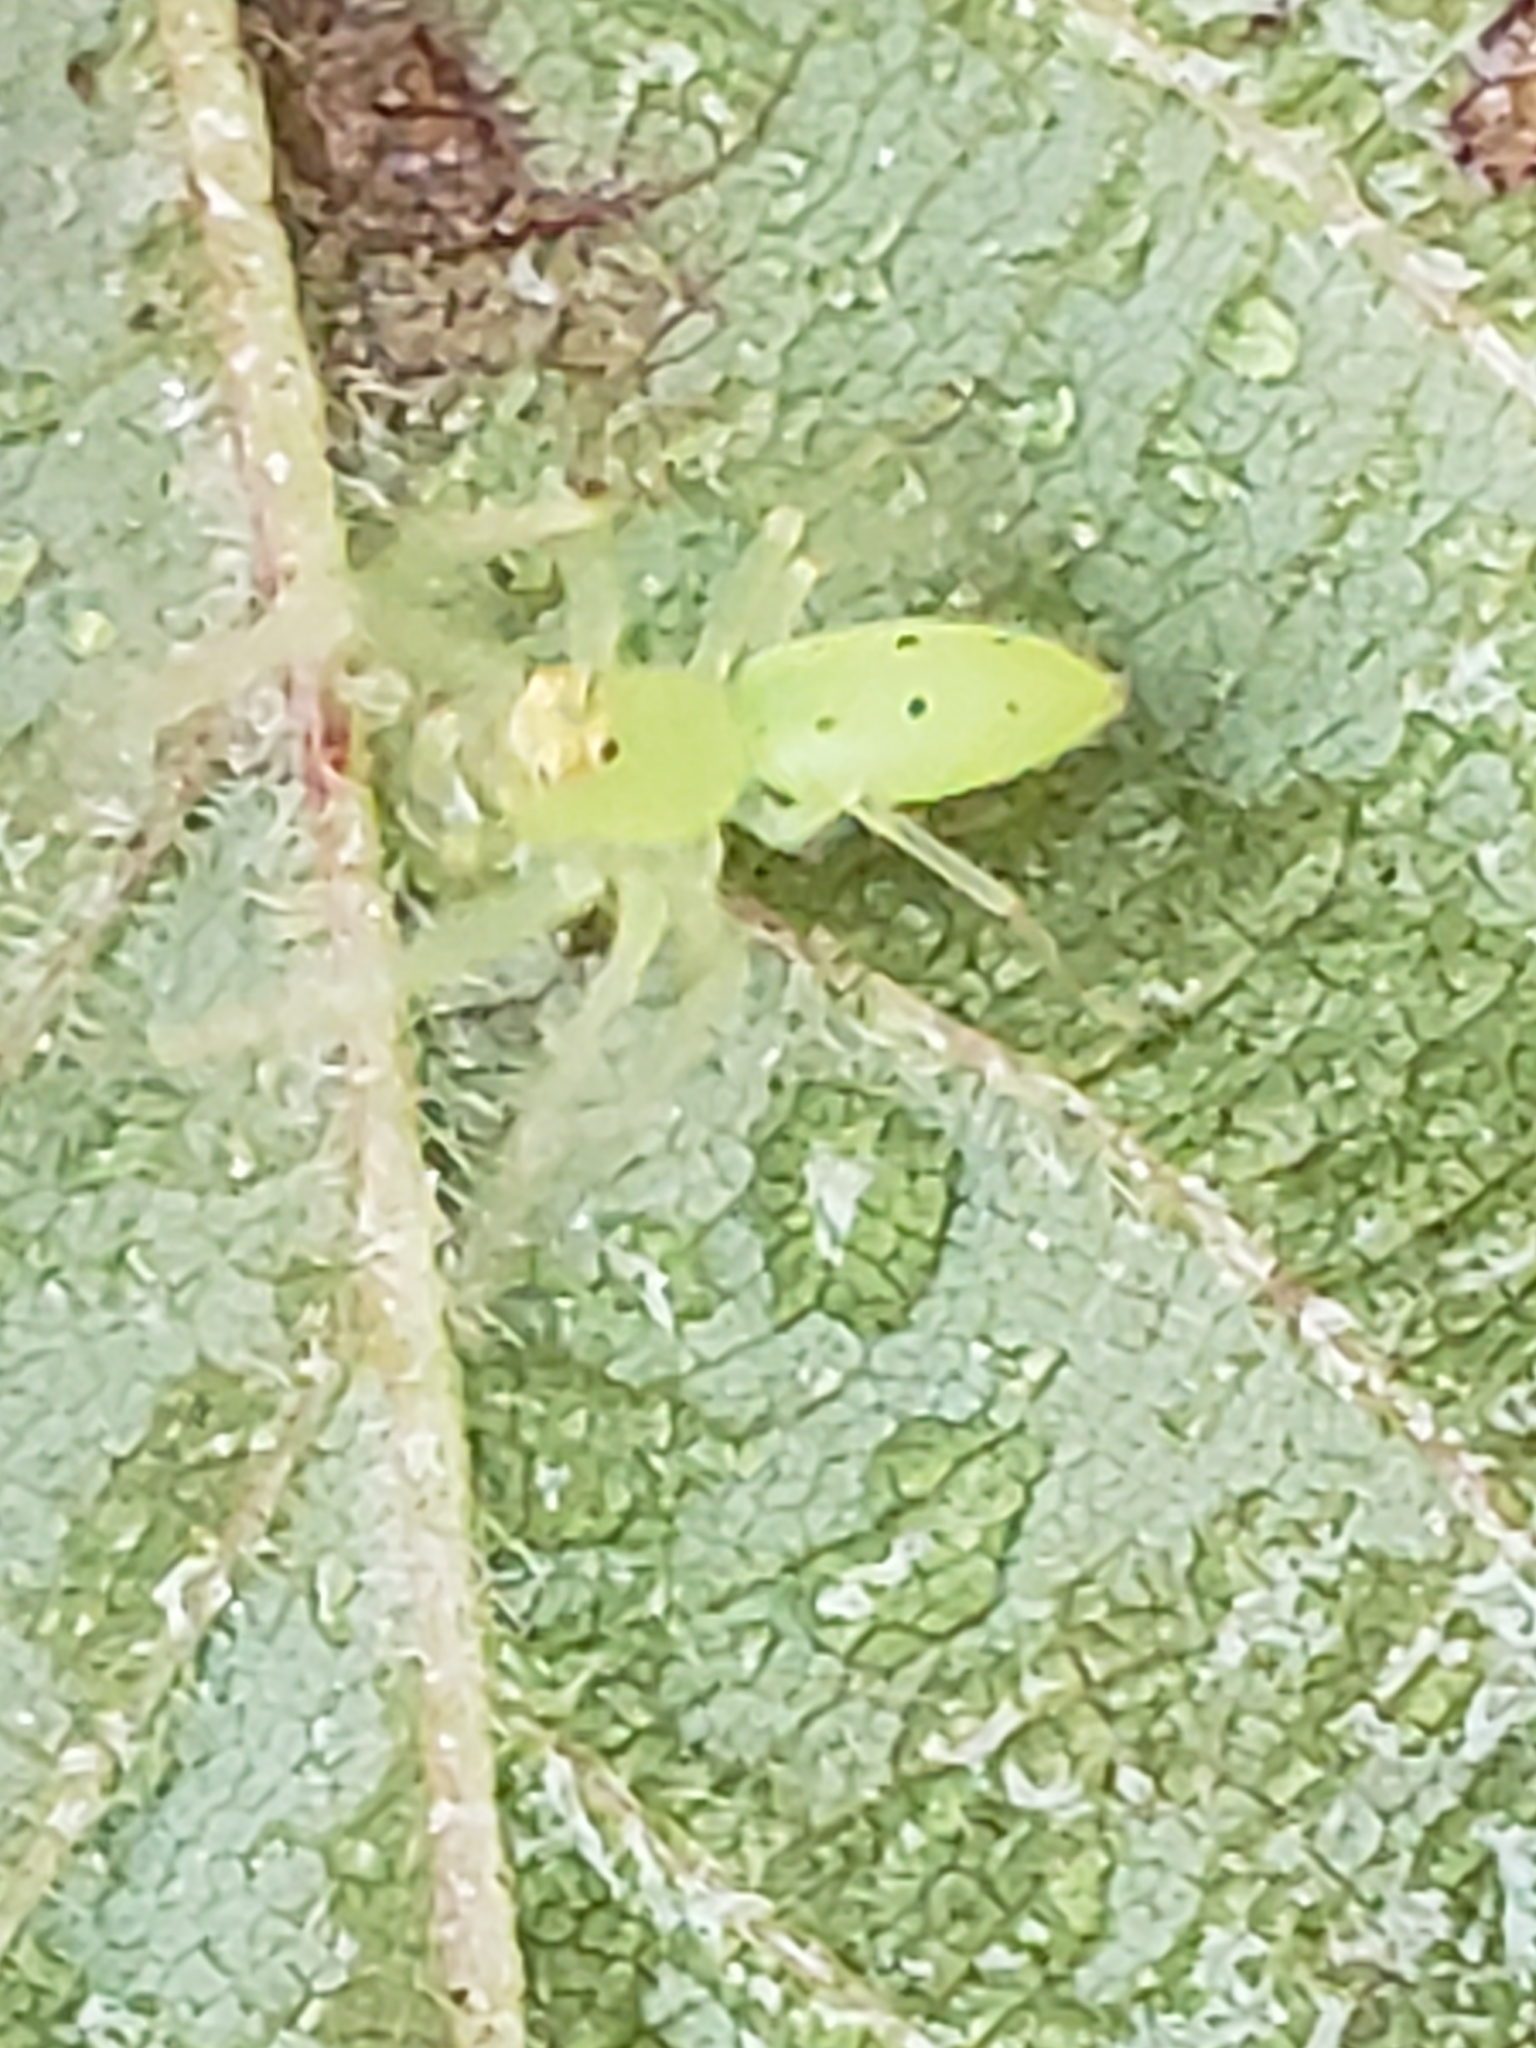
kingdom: Animalia
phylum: Arthropoda
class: Arachnida
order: Araneae
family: Salticidae
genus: Lyssomanes
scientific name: Lyssomanes viridis
